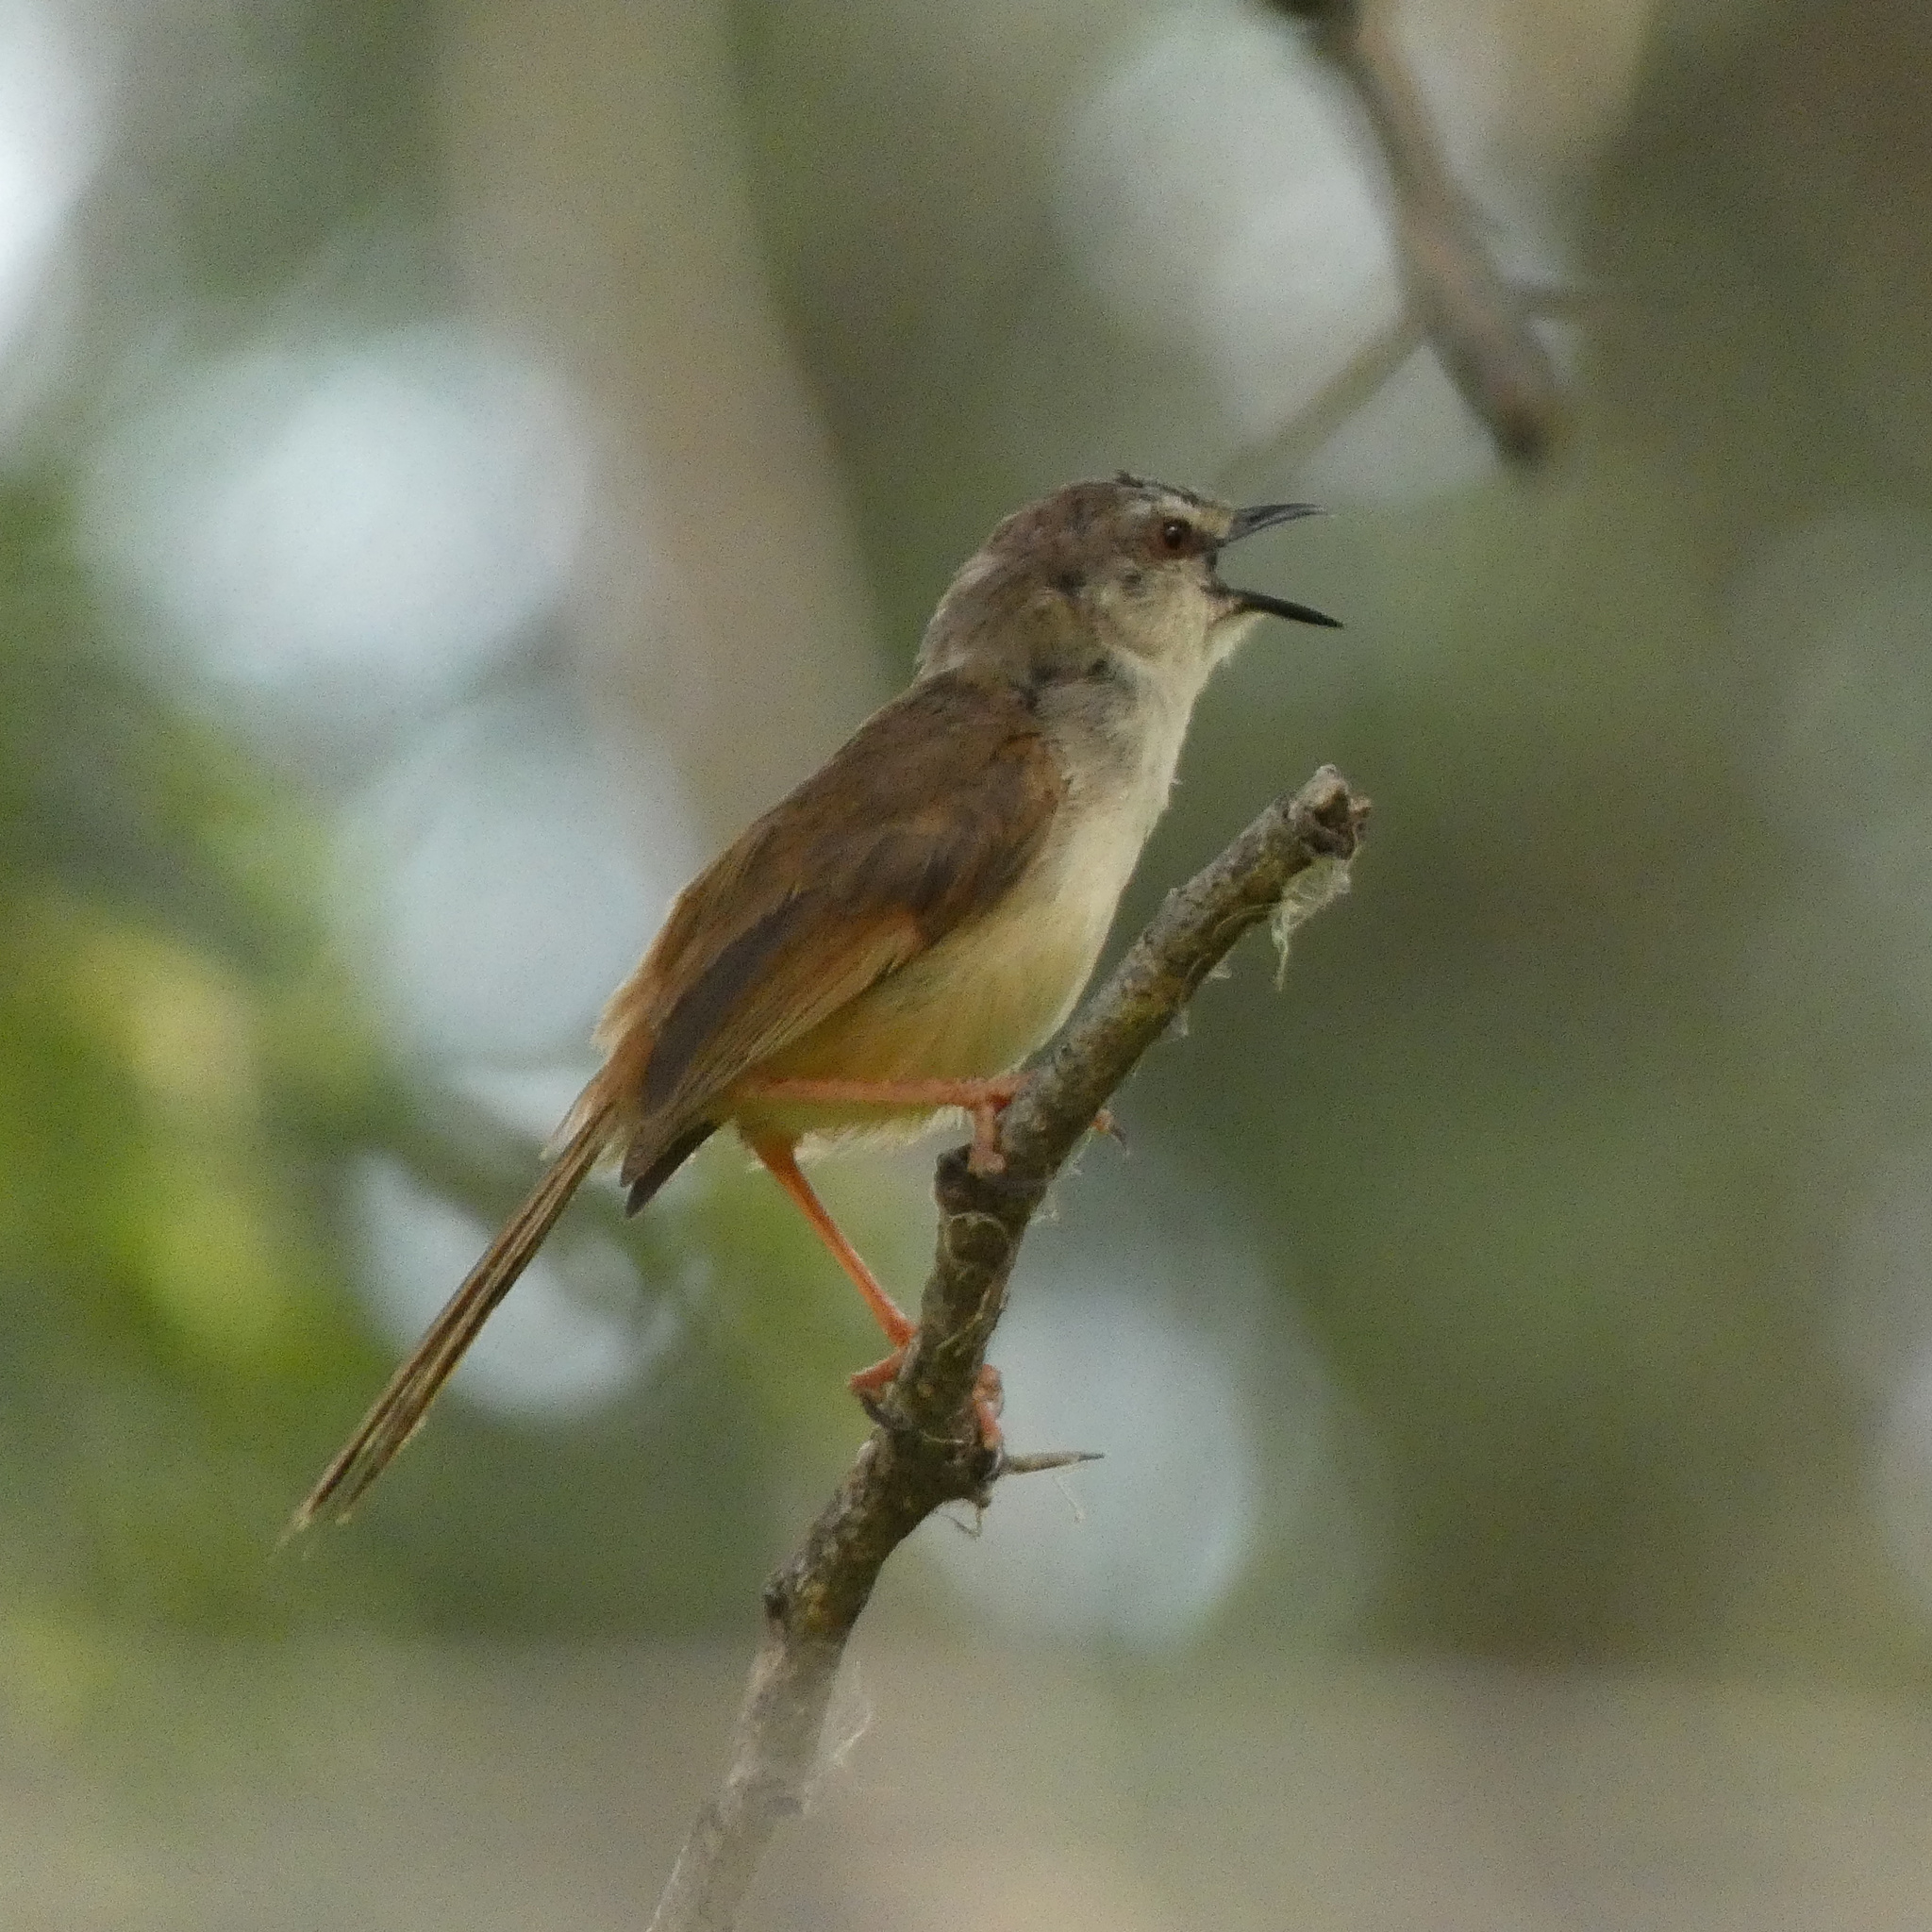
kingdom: Animalia
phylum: Chordata
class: Aves
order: Passeriformes
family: Cisticolidae
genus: Prinia
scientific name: Prinia subflava
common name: Tawny-flanked prinia
